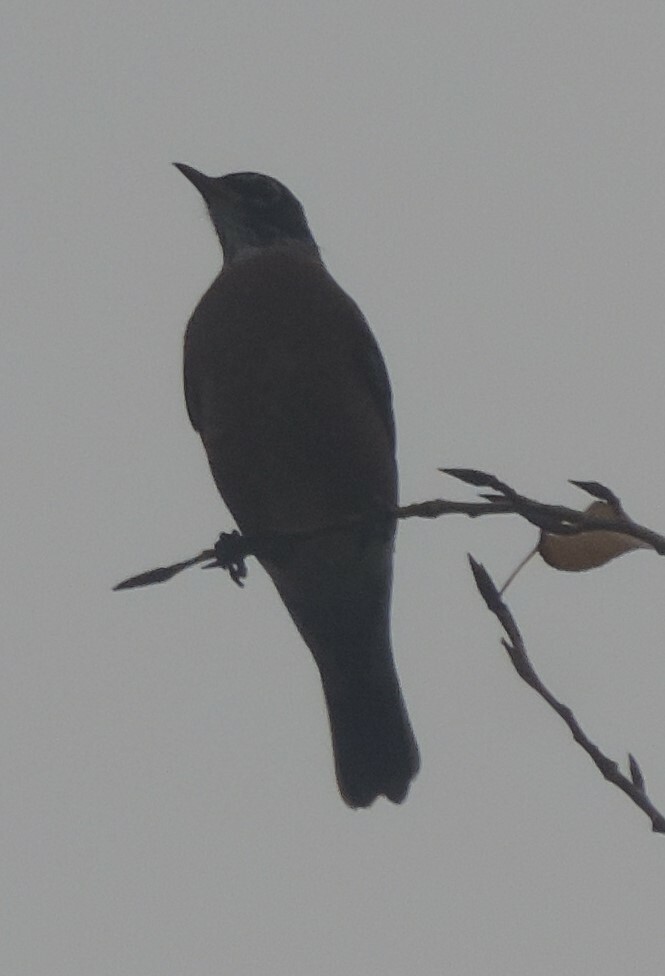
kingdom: Animalia
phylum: Chordata
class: Aves
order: Passeriformes
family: Turdidae
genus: Turdus
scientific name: Turdus migratorius
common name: American robin
